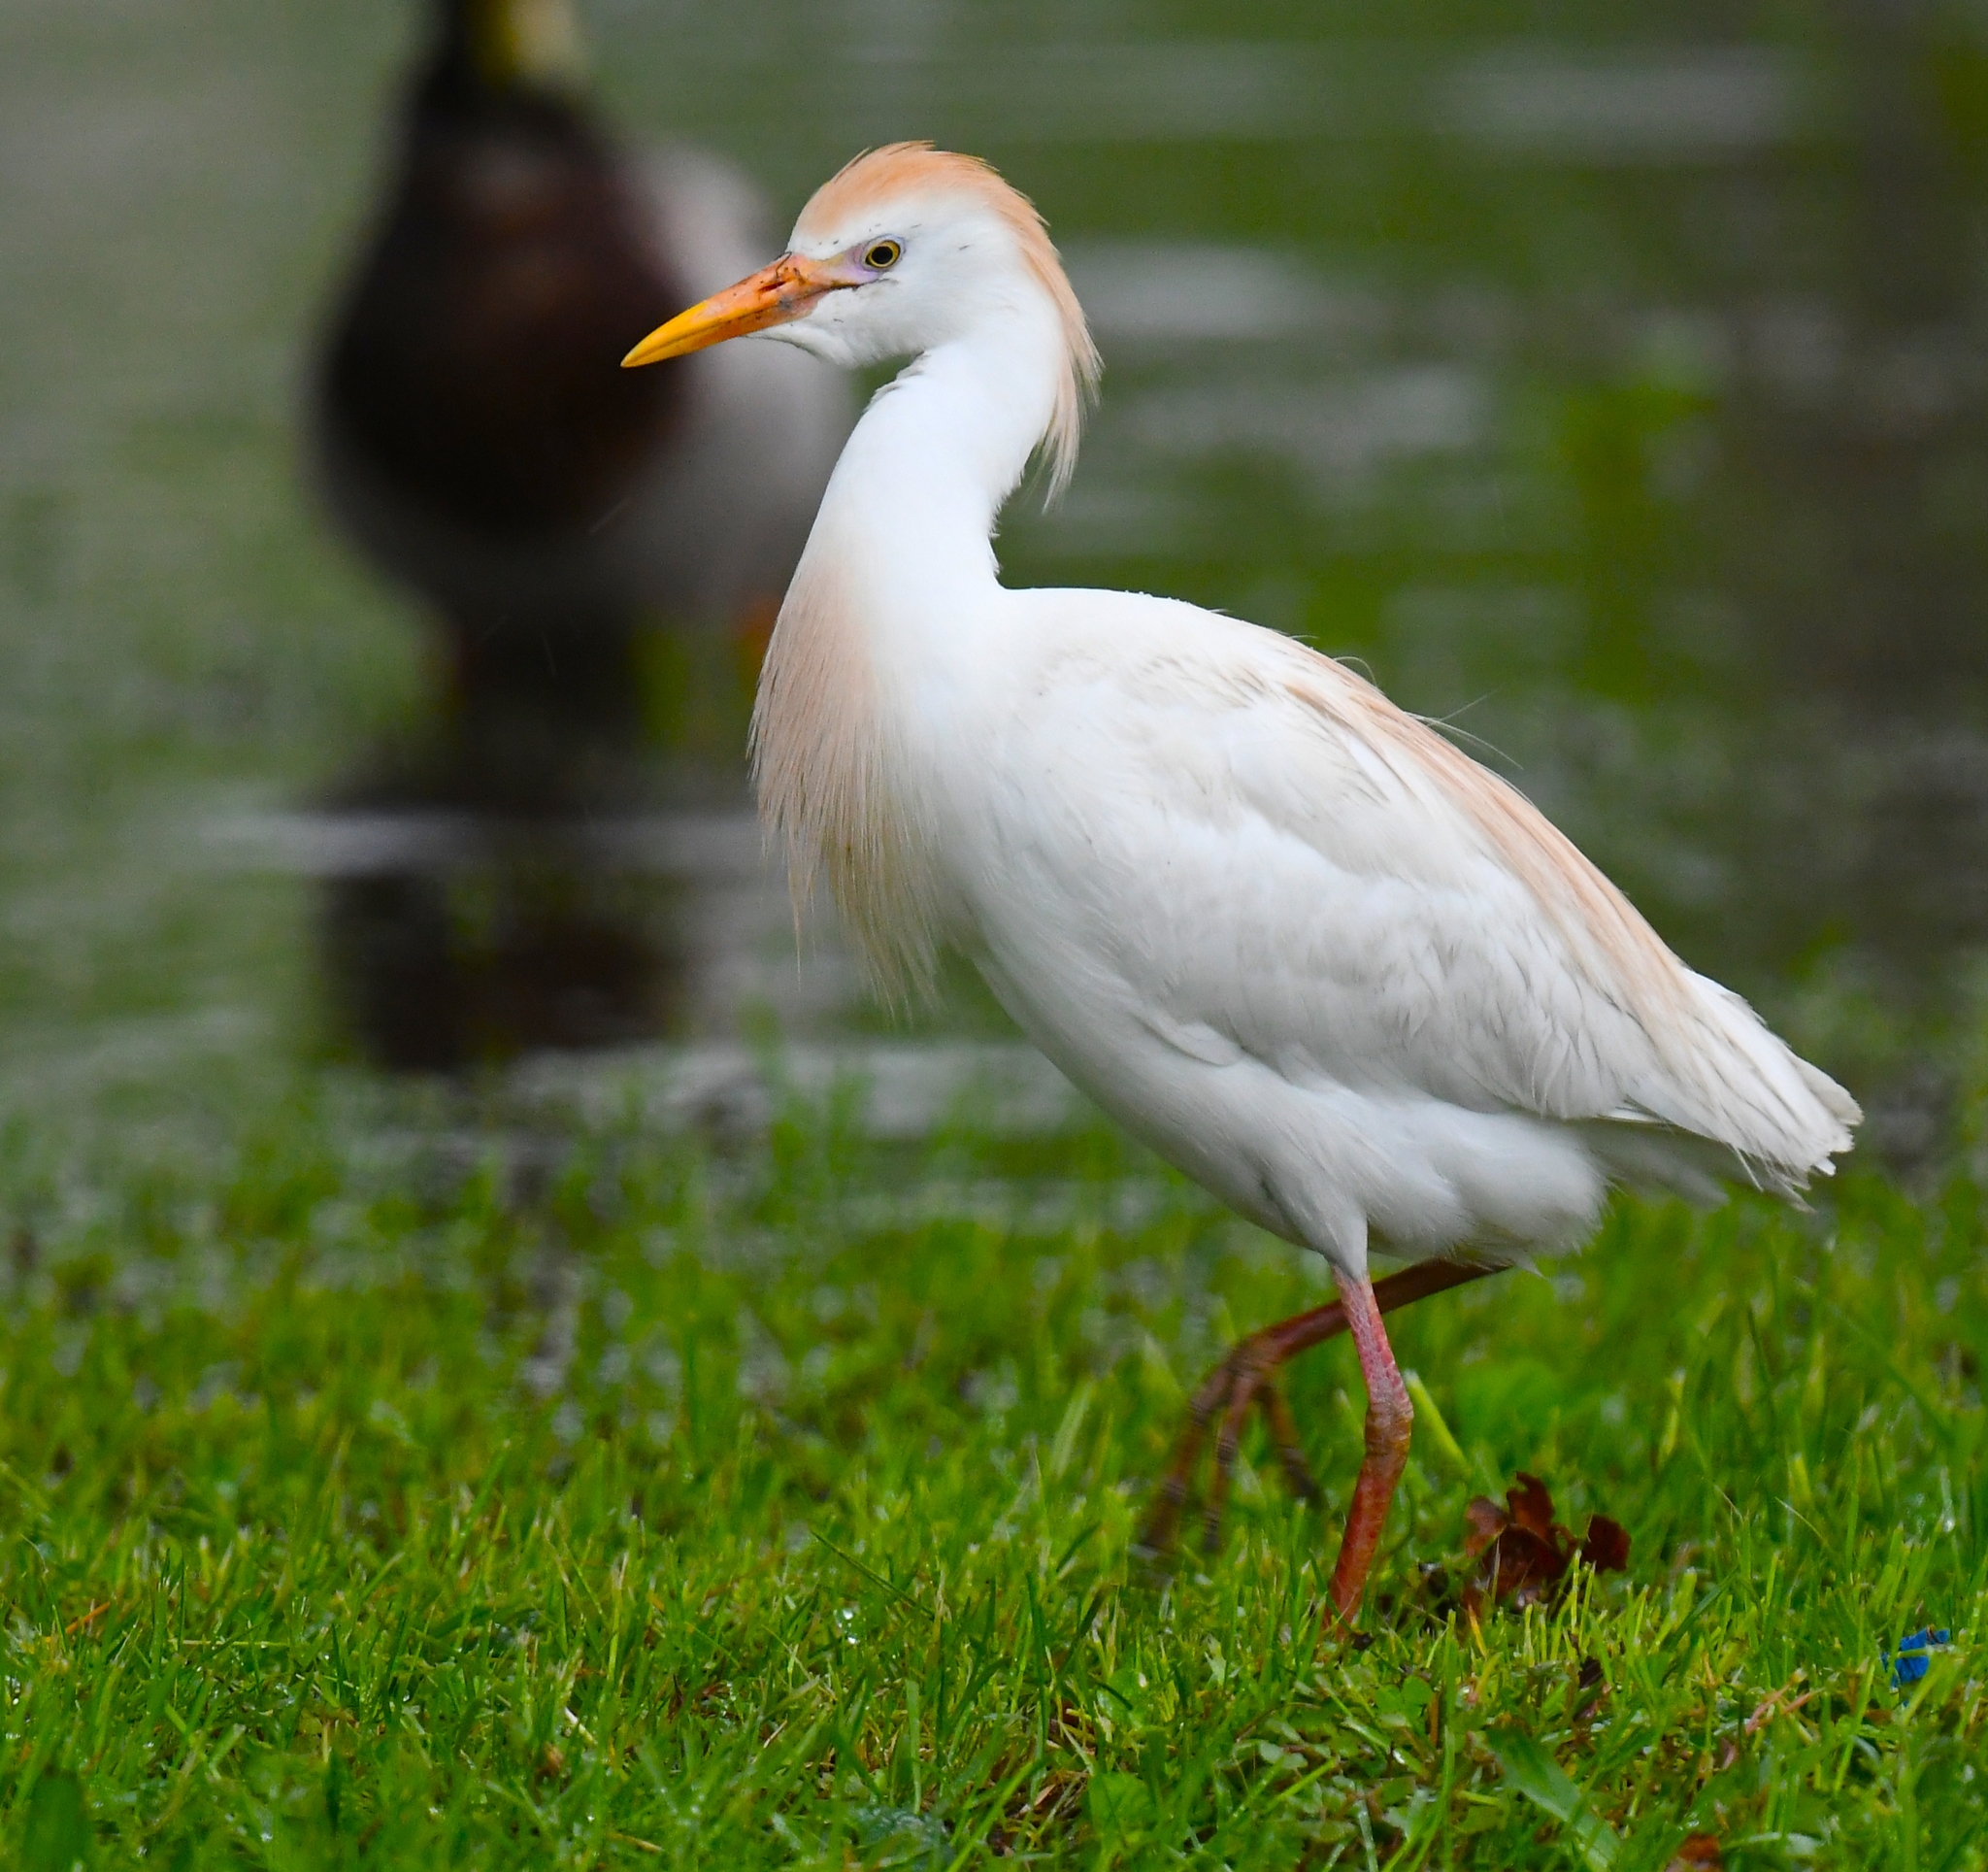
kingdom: Animalia
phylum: Chordata
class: Aves
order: Pelecaniformes
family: Ardeidae
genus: Bubulcus
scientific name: Bubulcus ibis
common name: Cattle egret
